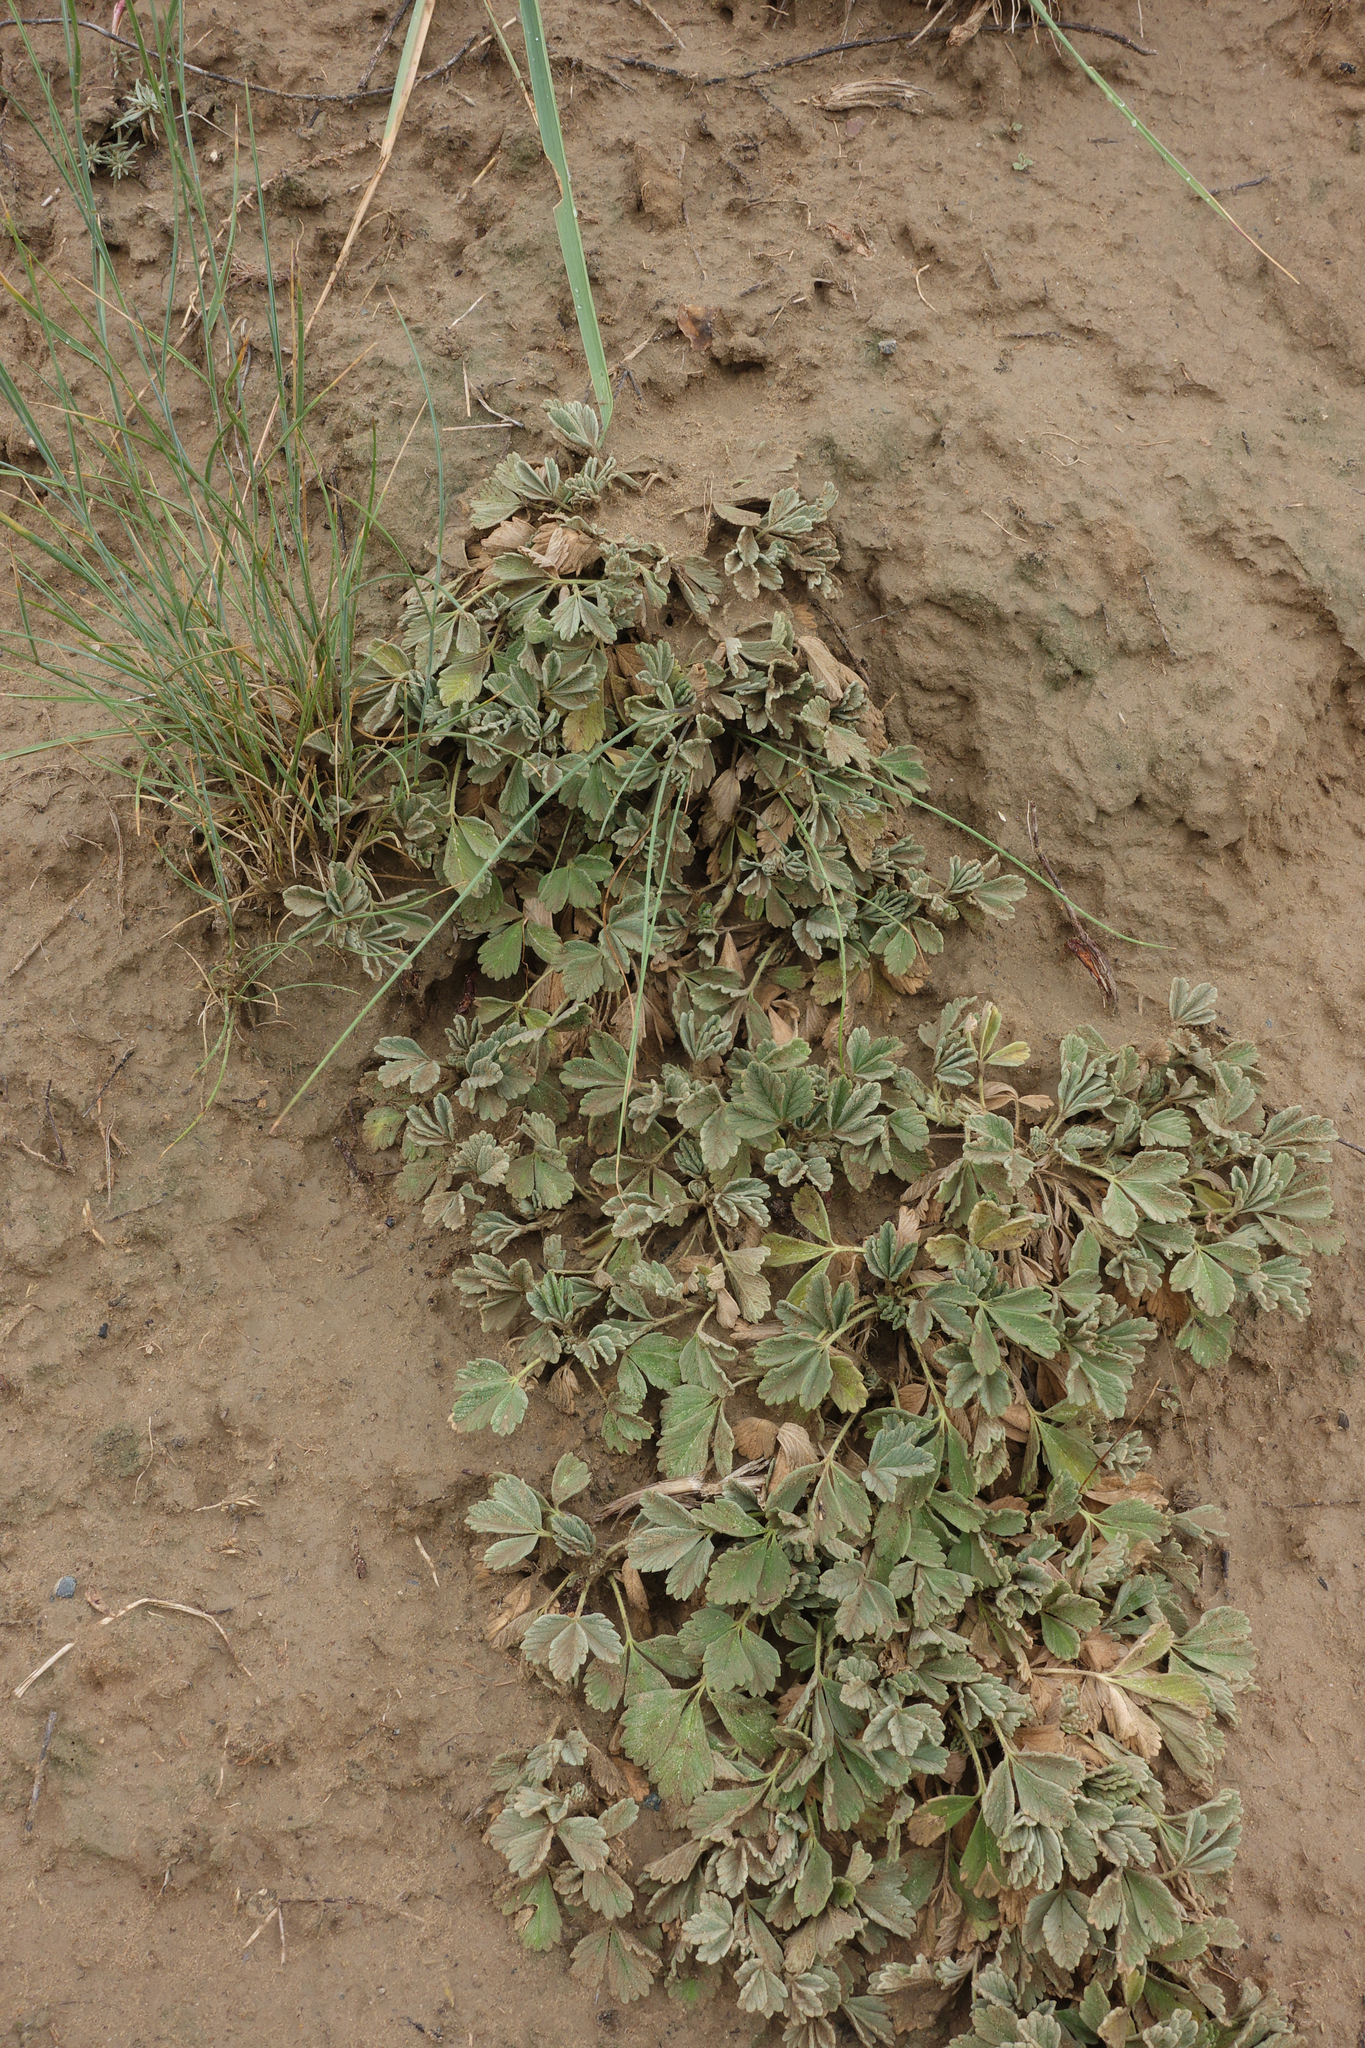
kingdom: Plantae
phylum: Tracheophyta
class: Magnoliopsida
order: Rosales
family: Rosaceae
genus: Potentilla
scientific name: Potentilla acaulis
